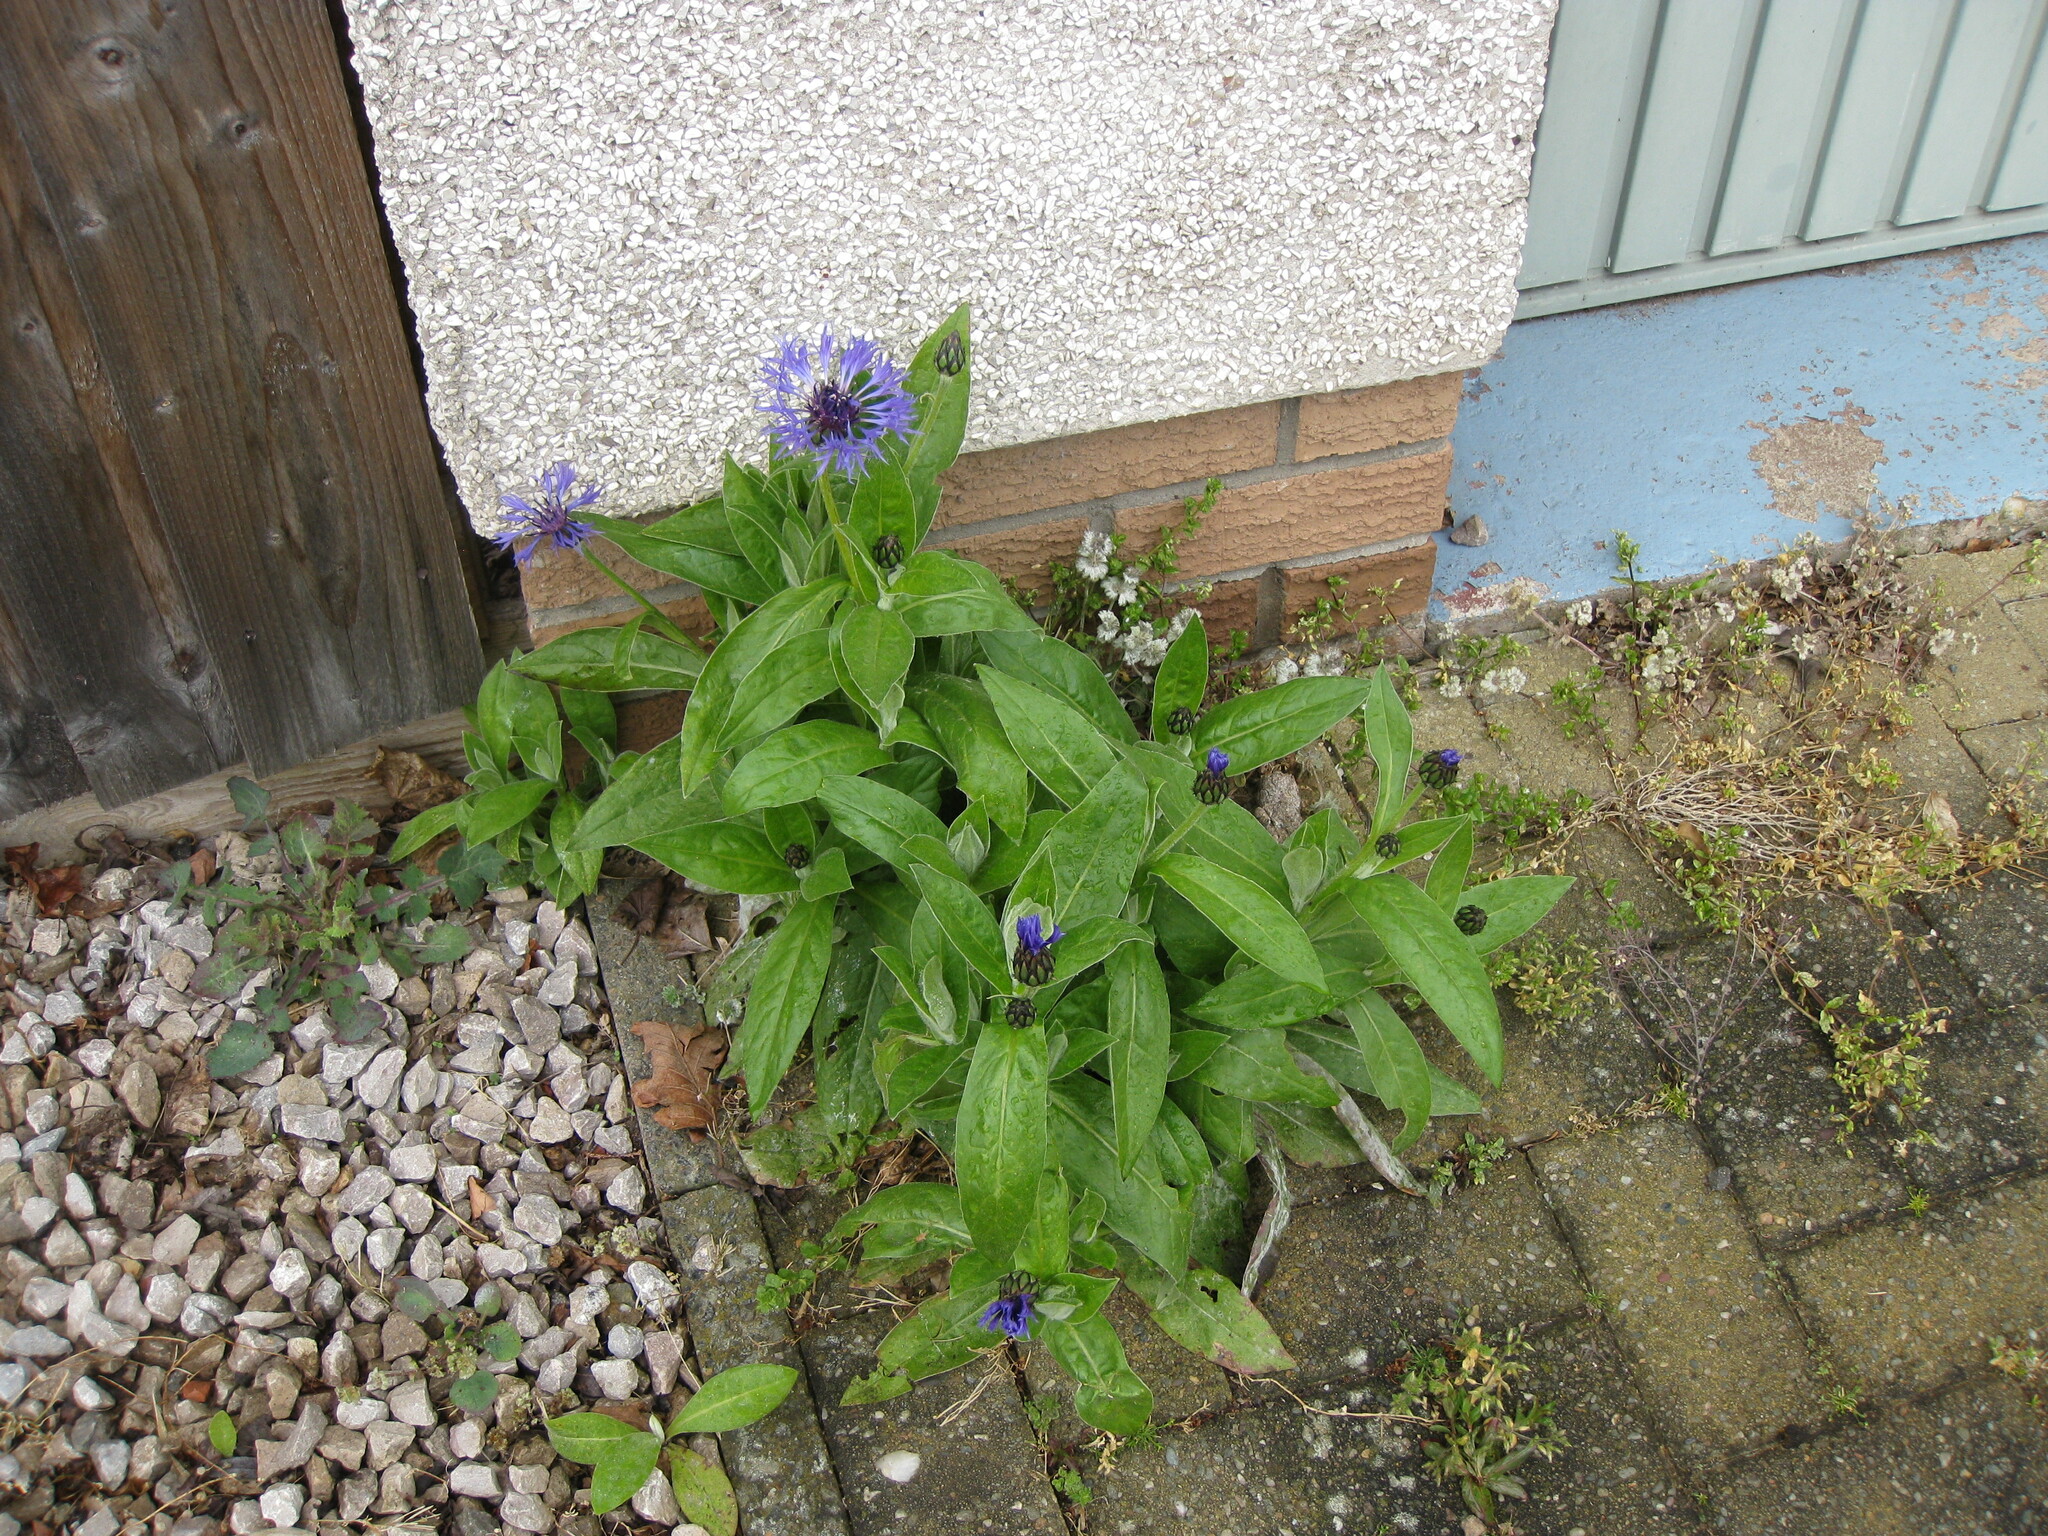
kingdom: Plantae
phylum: Tracheophyta
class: Magnoliopsida
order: Asterales
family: Asteraceae
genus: Centaurea
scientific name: Centaurea montana
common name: Perennial cornflower
